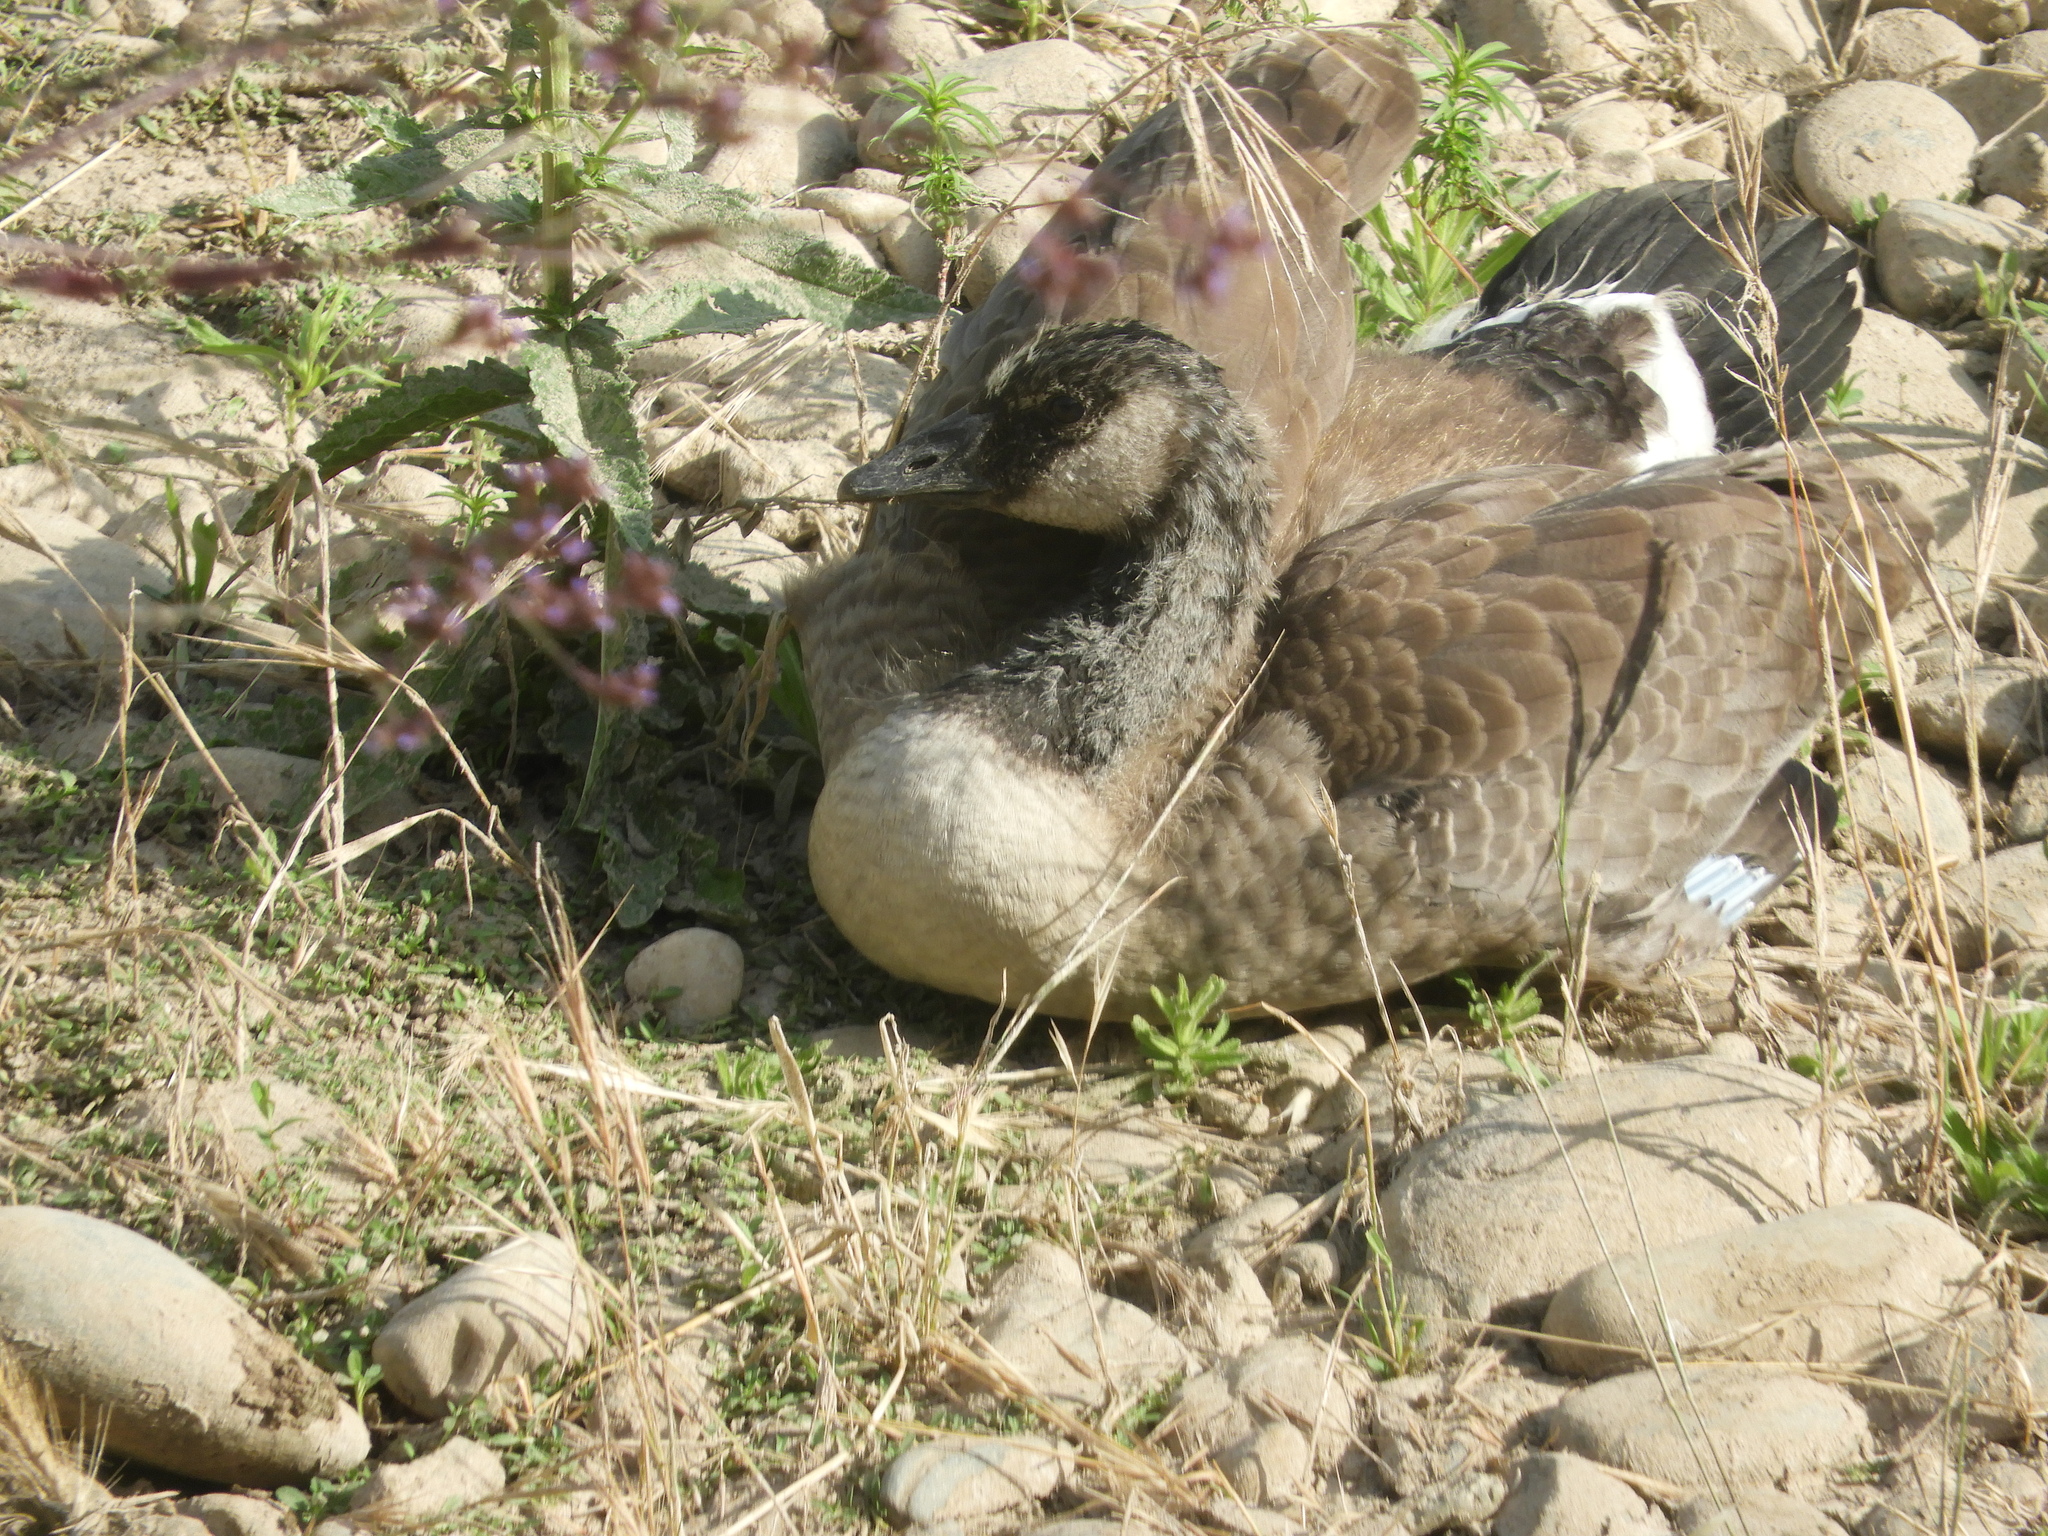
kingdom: Animalia
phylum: Chordata
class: Aves
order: Anseriformes
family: Anatidae
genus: Branta
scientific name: Branta canadensis
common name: Canada goose
